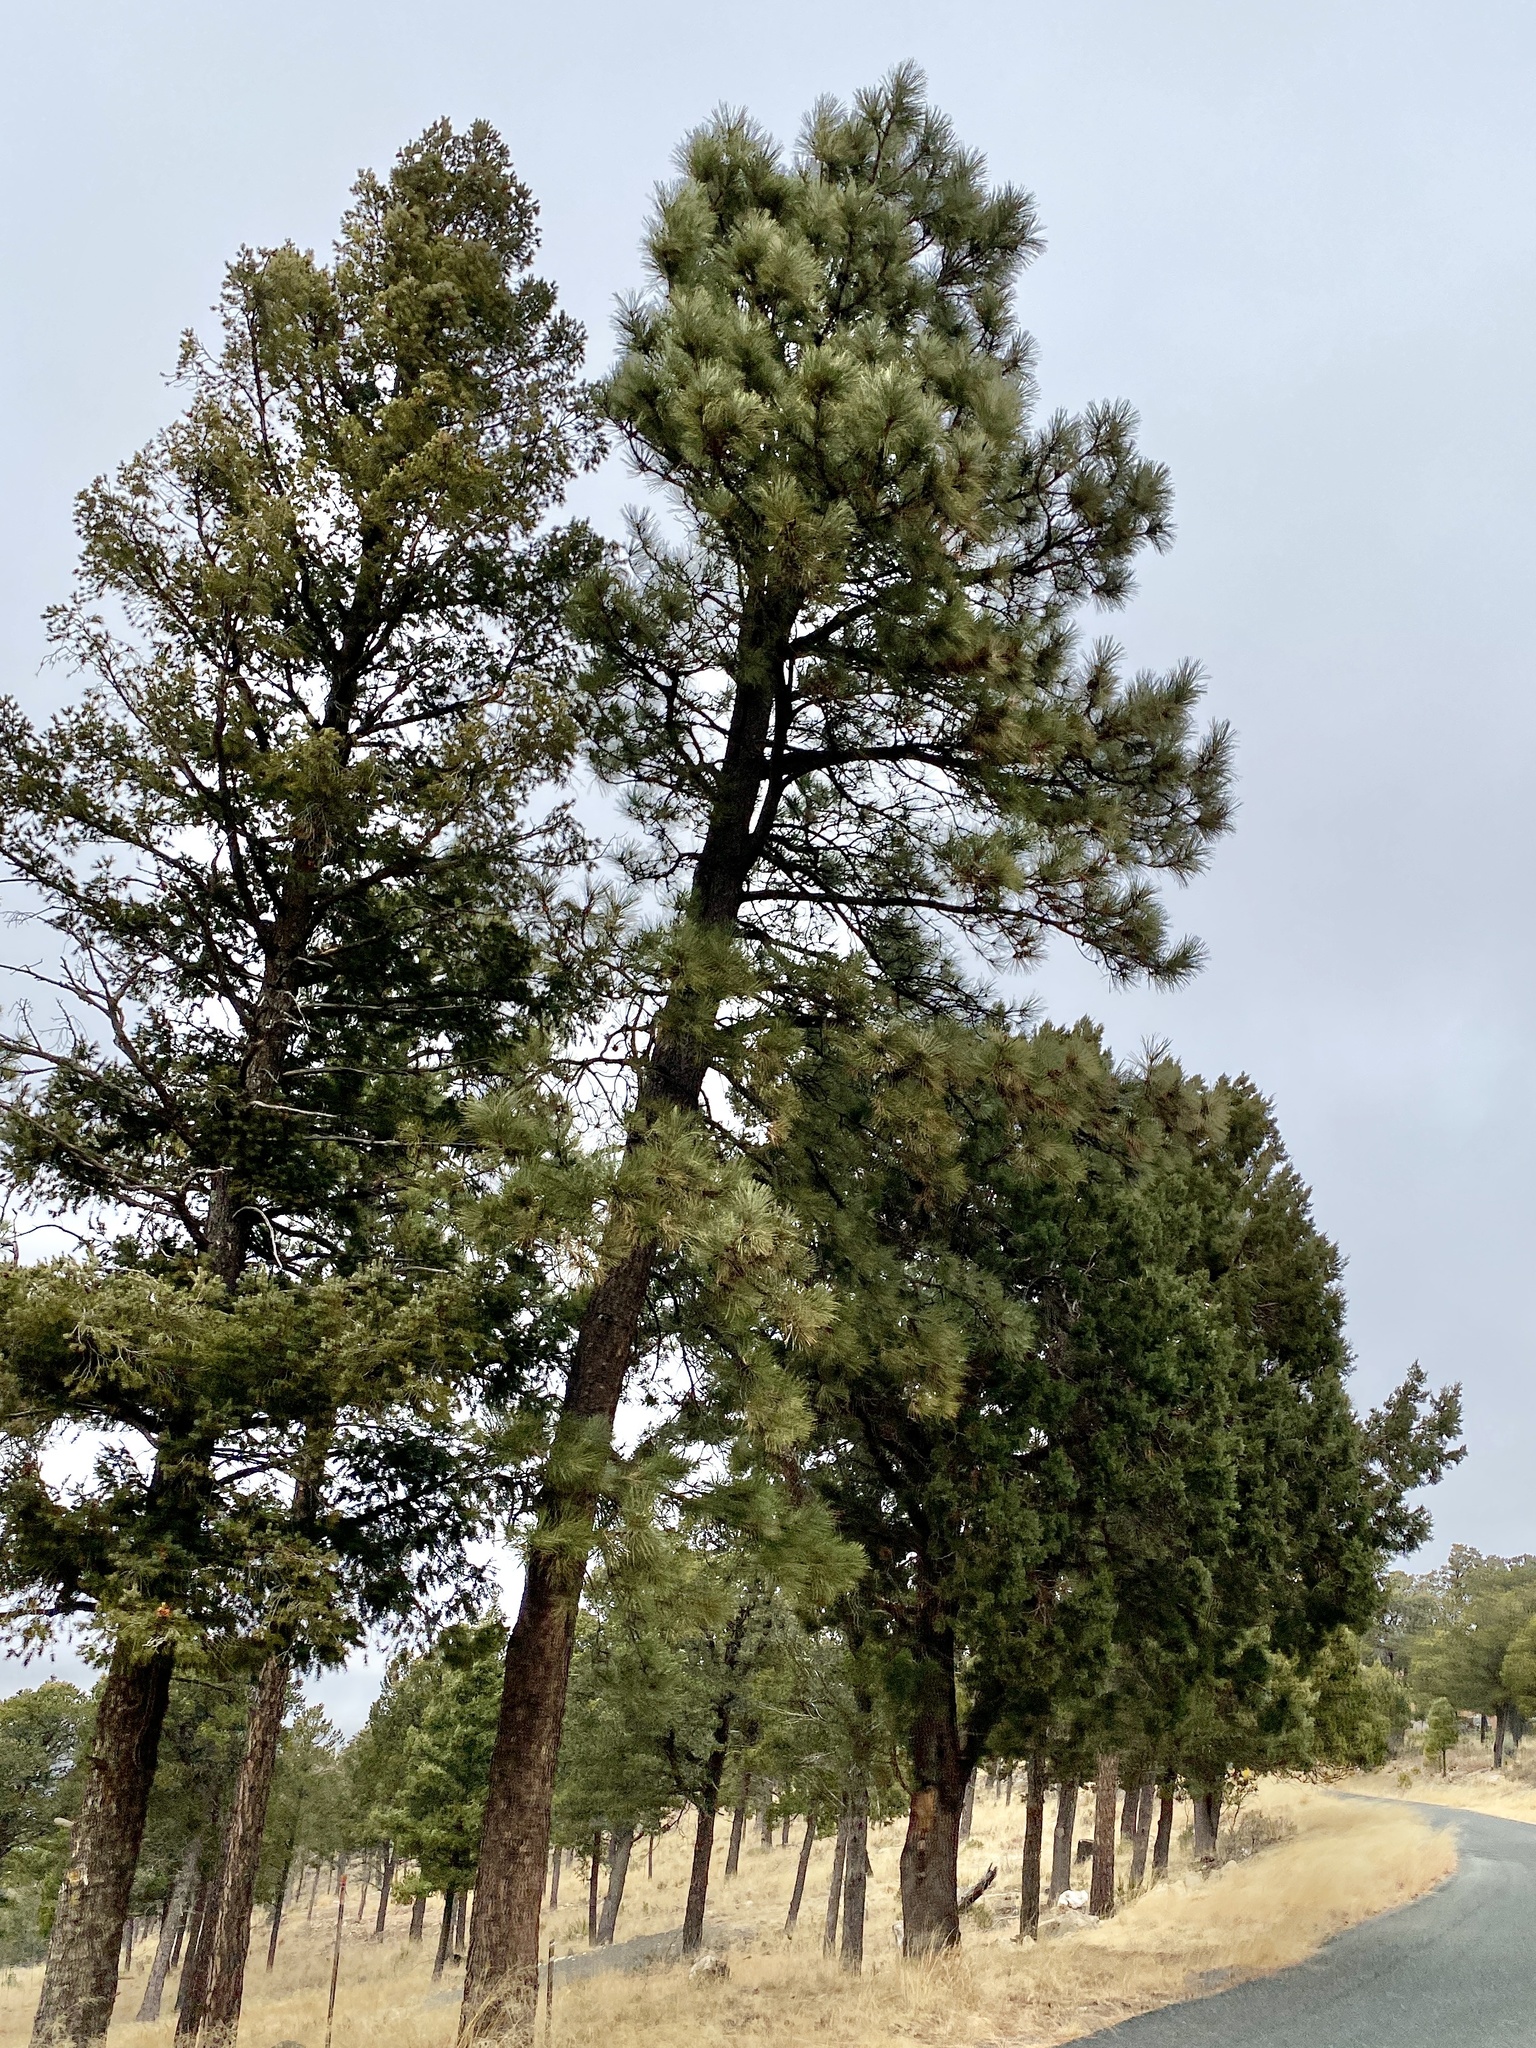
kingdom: Plantae
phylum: Tracheophyta
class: Pinopsida
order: Pinales
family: Pinaceae
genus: Pinus
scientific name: Pinus ponderosa
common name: Western yellow-pine
